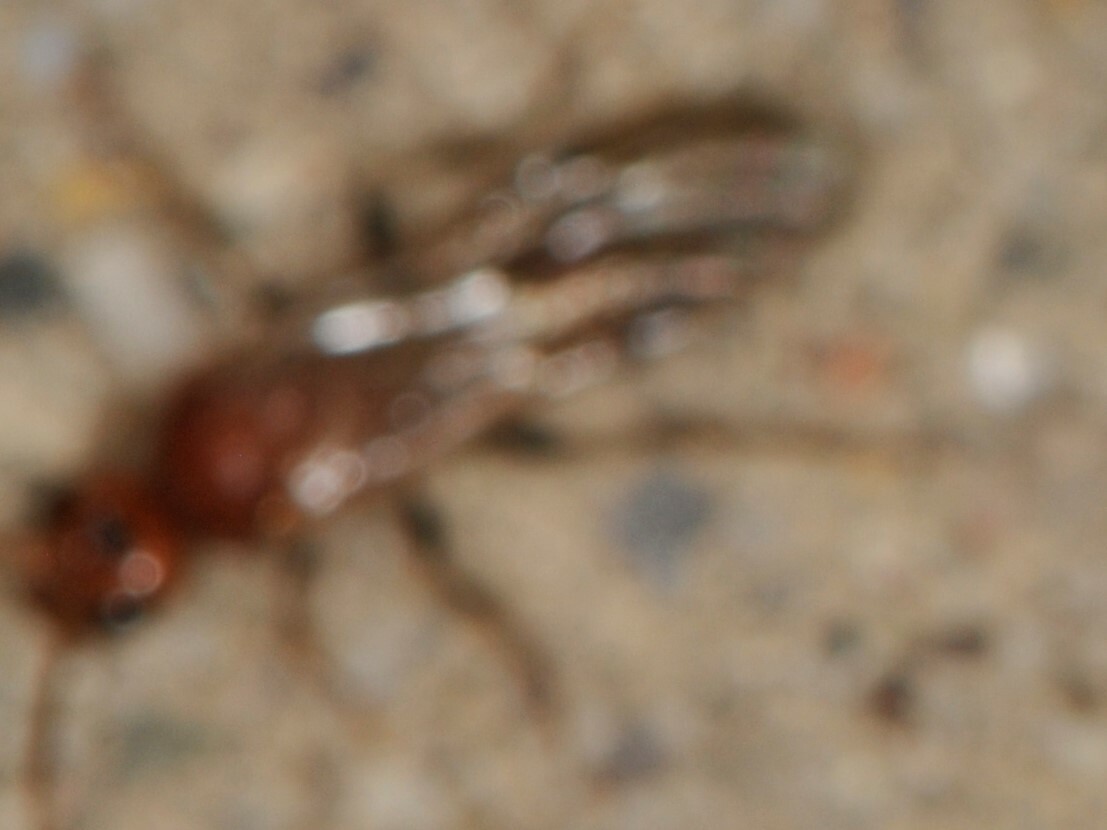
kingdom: Animalia
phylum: Arthropoda
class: Insecta
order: Hymenoptera
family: Mutillidae
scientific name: Mutillidae
